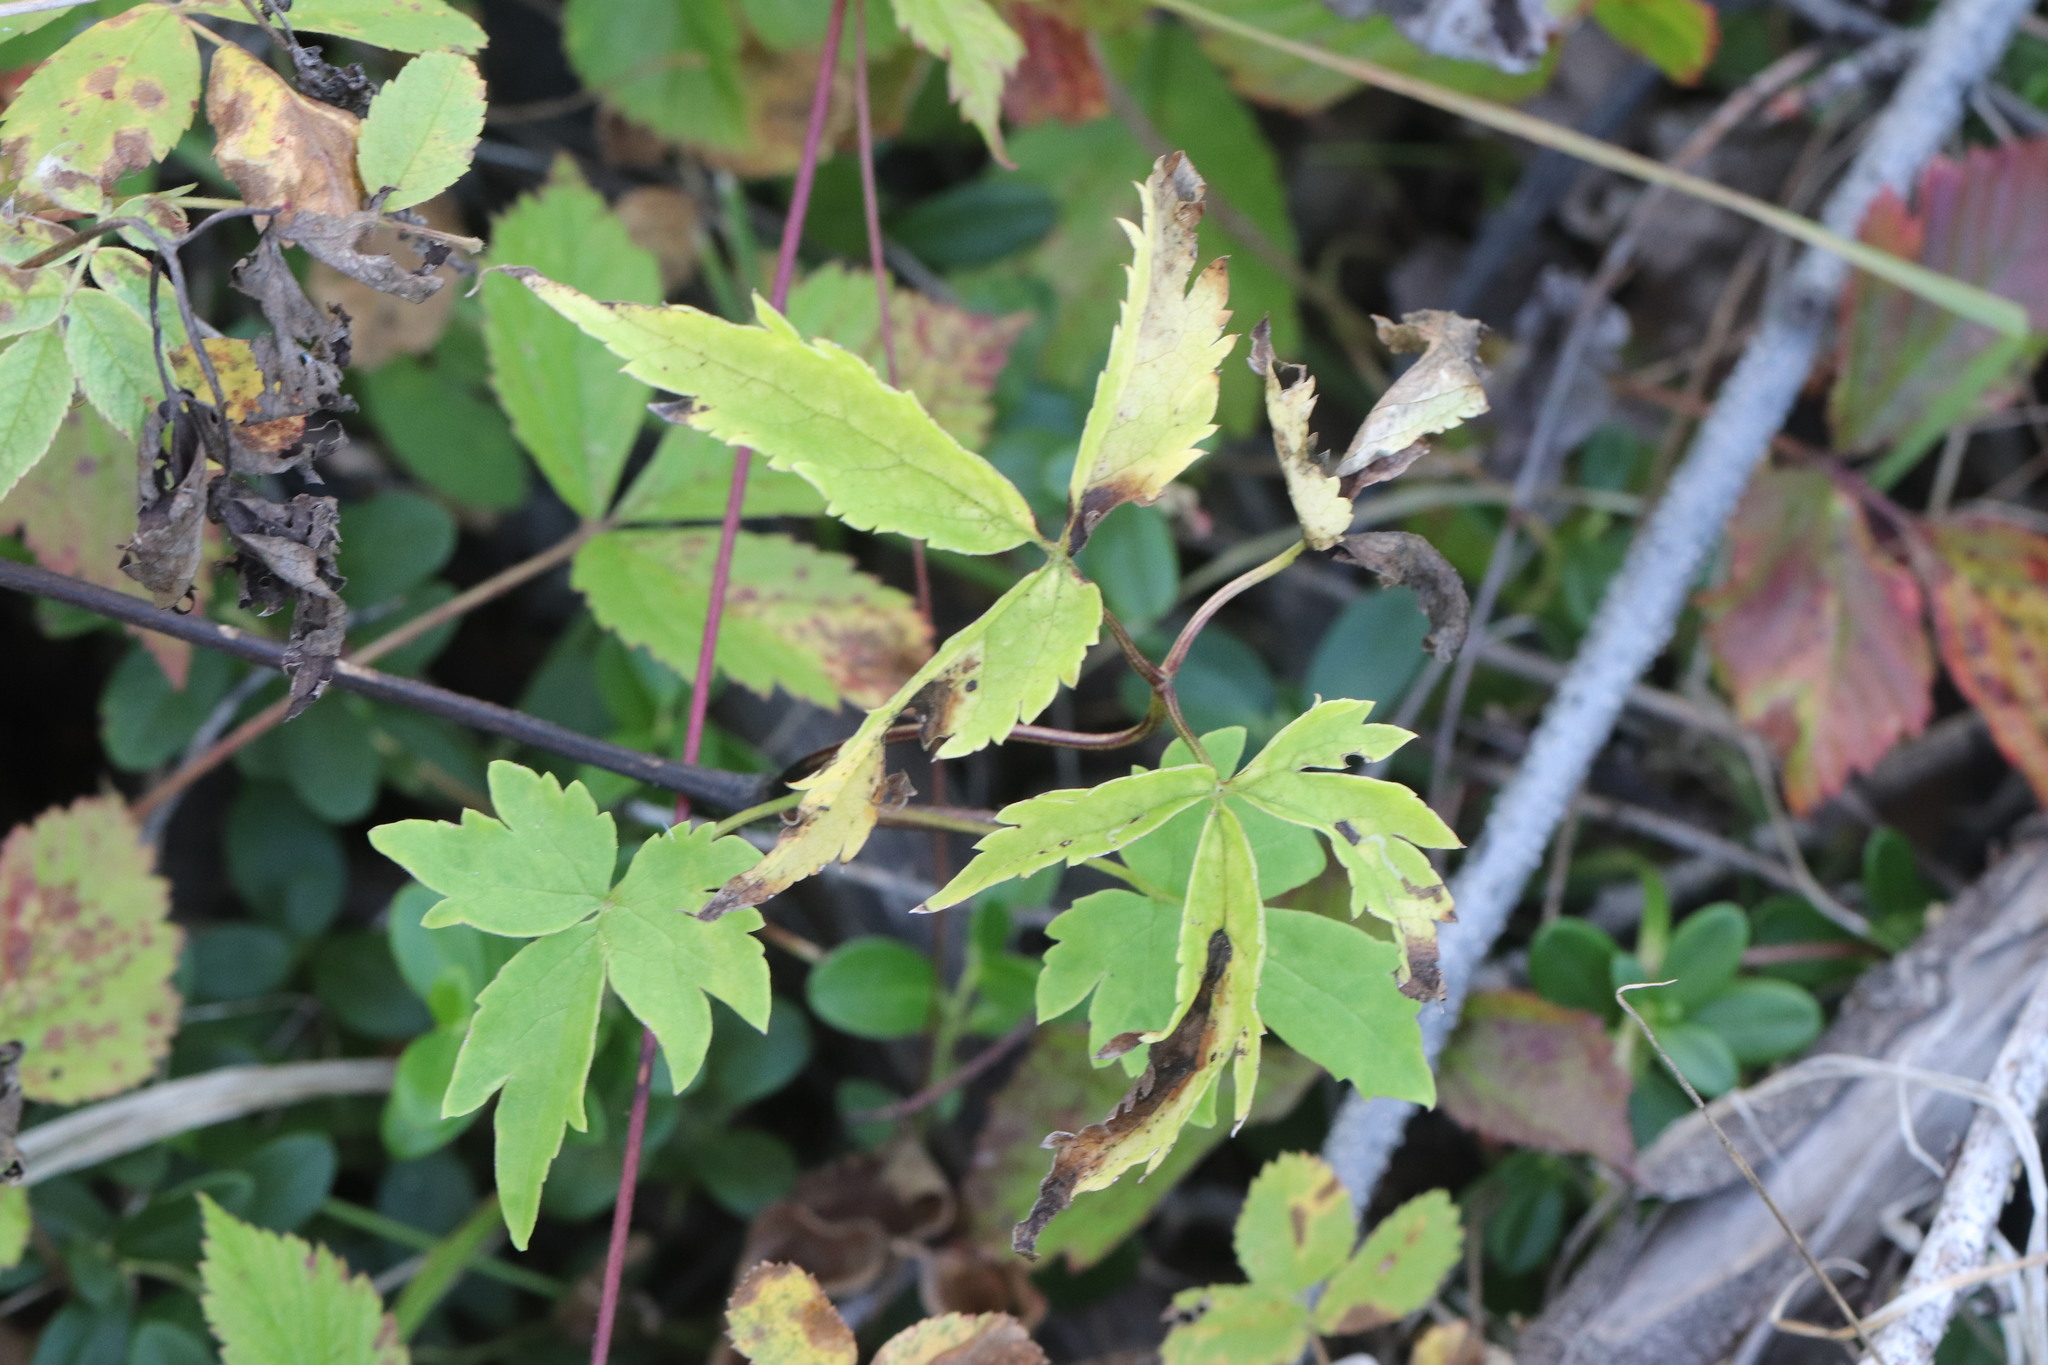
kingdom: Plantae
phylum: Tracheophyta
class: Magnoliopsida
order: Ranunculales
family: Ranunculaceae
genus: Clematis
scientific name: Clematis sibirica
